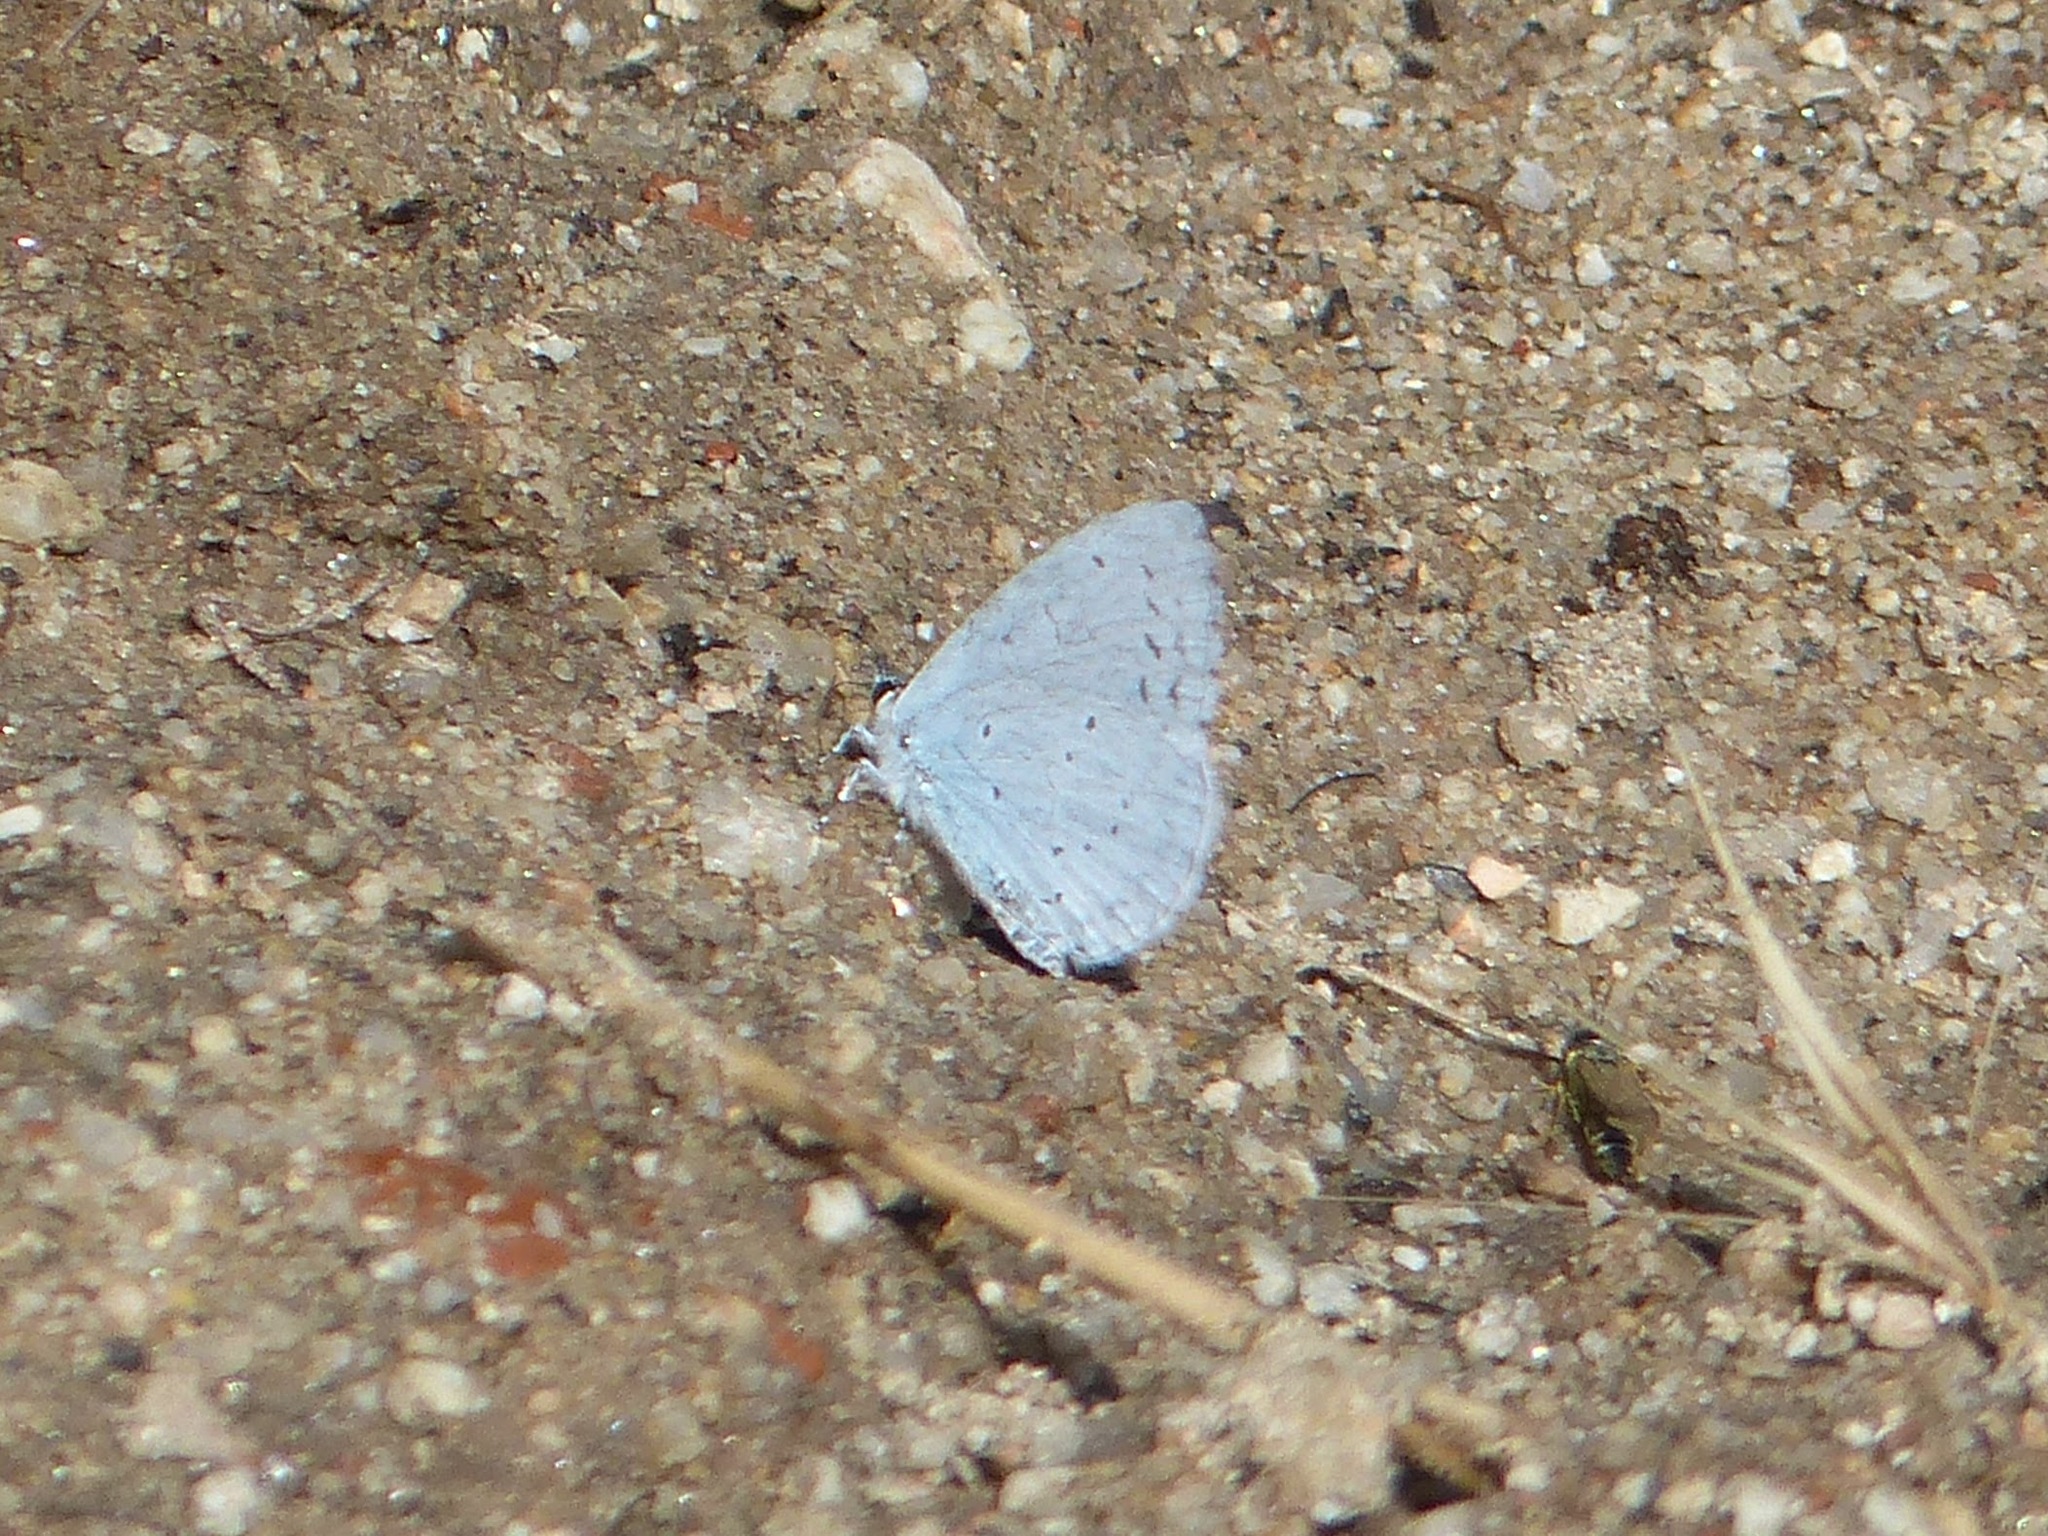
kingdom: Animalia
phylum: Arthropoda
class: Insecta
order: Lepidoptera
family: Lycaenidae
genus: Celastrina
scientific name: Celastrina argiolus
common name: Holly blue
